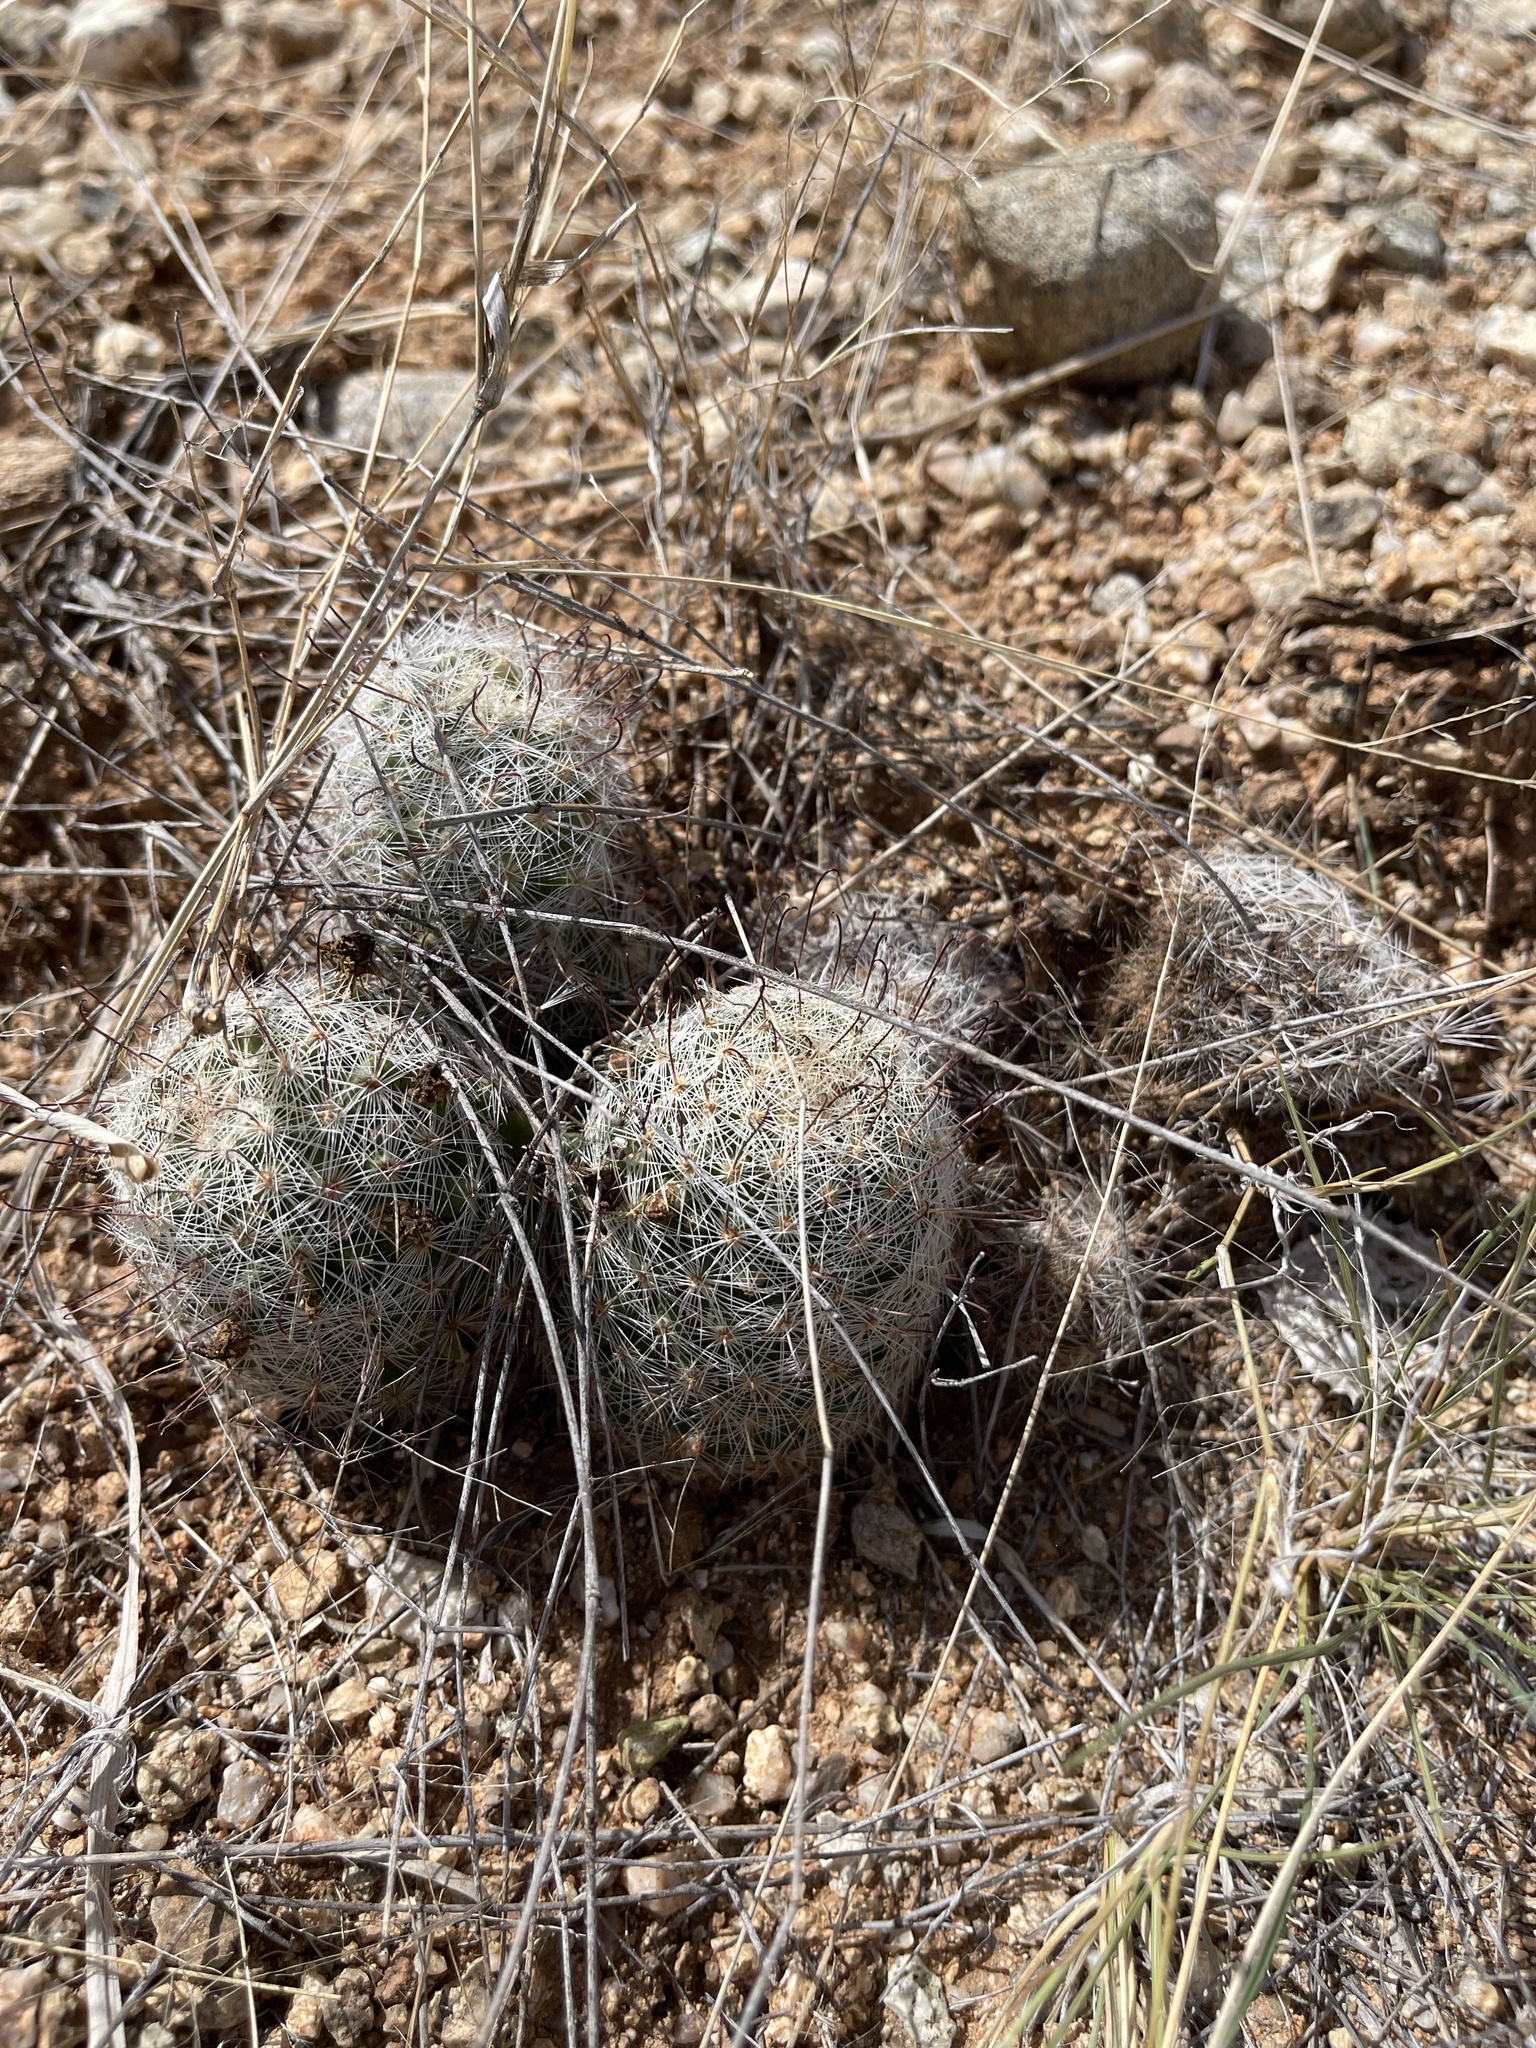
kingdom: Plantae
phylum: Tracheophyta
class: Magnoliopsida
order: Caryophyllales
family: Cactaceae
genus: Cochemiea
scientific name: Cochemiea grahamii
